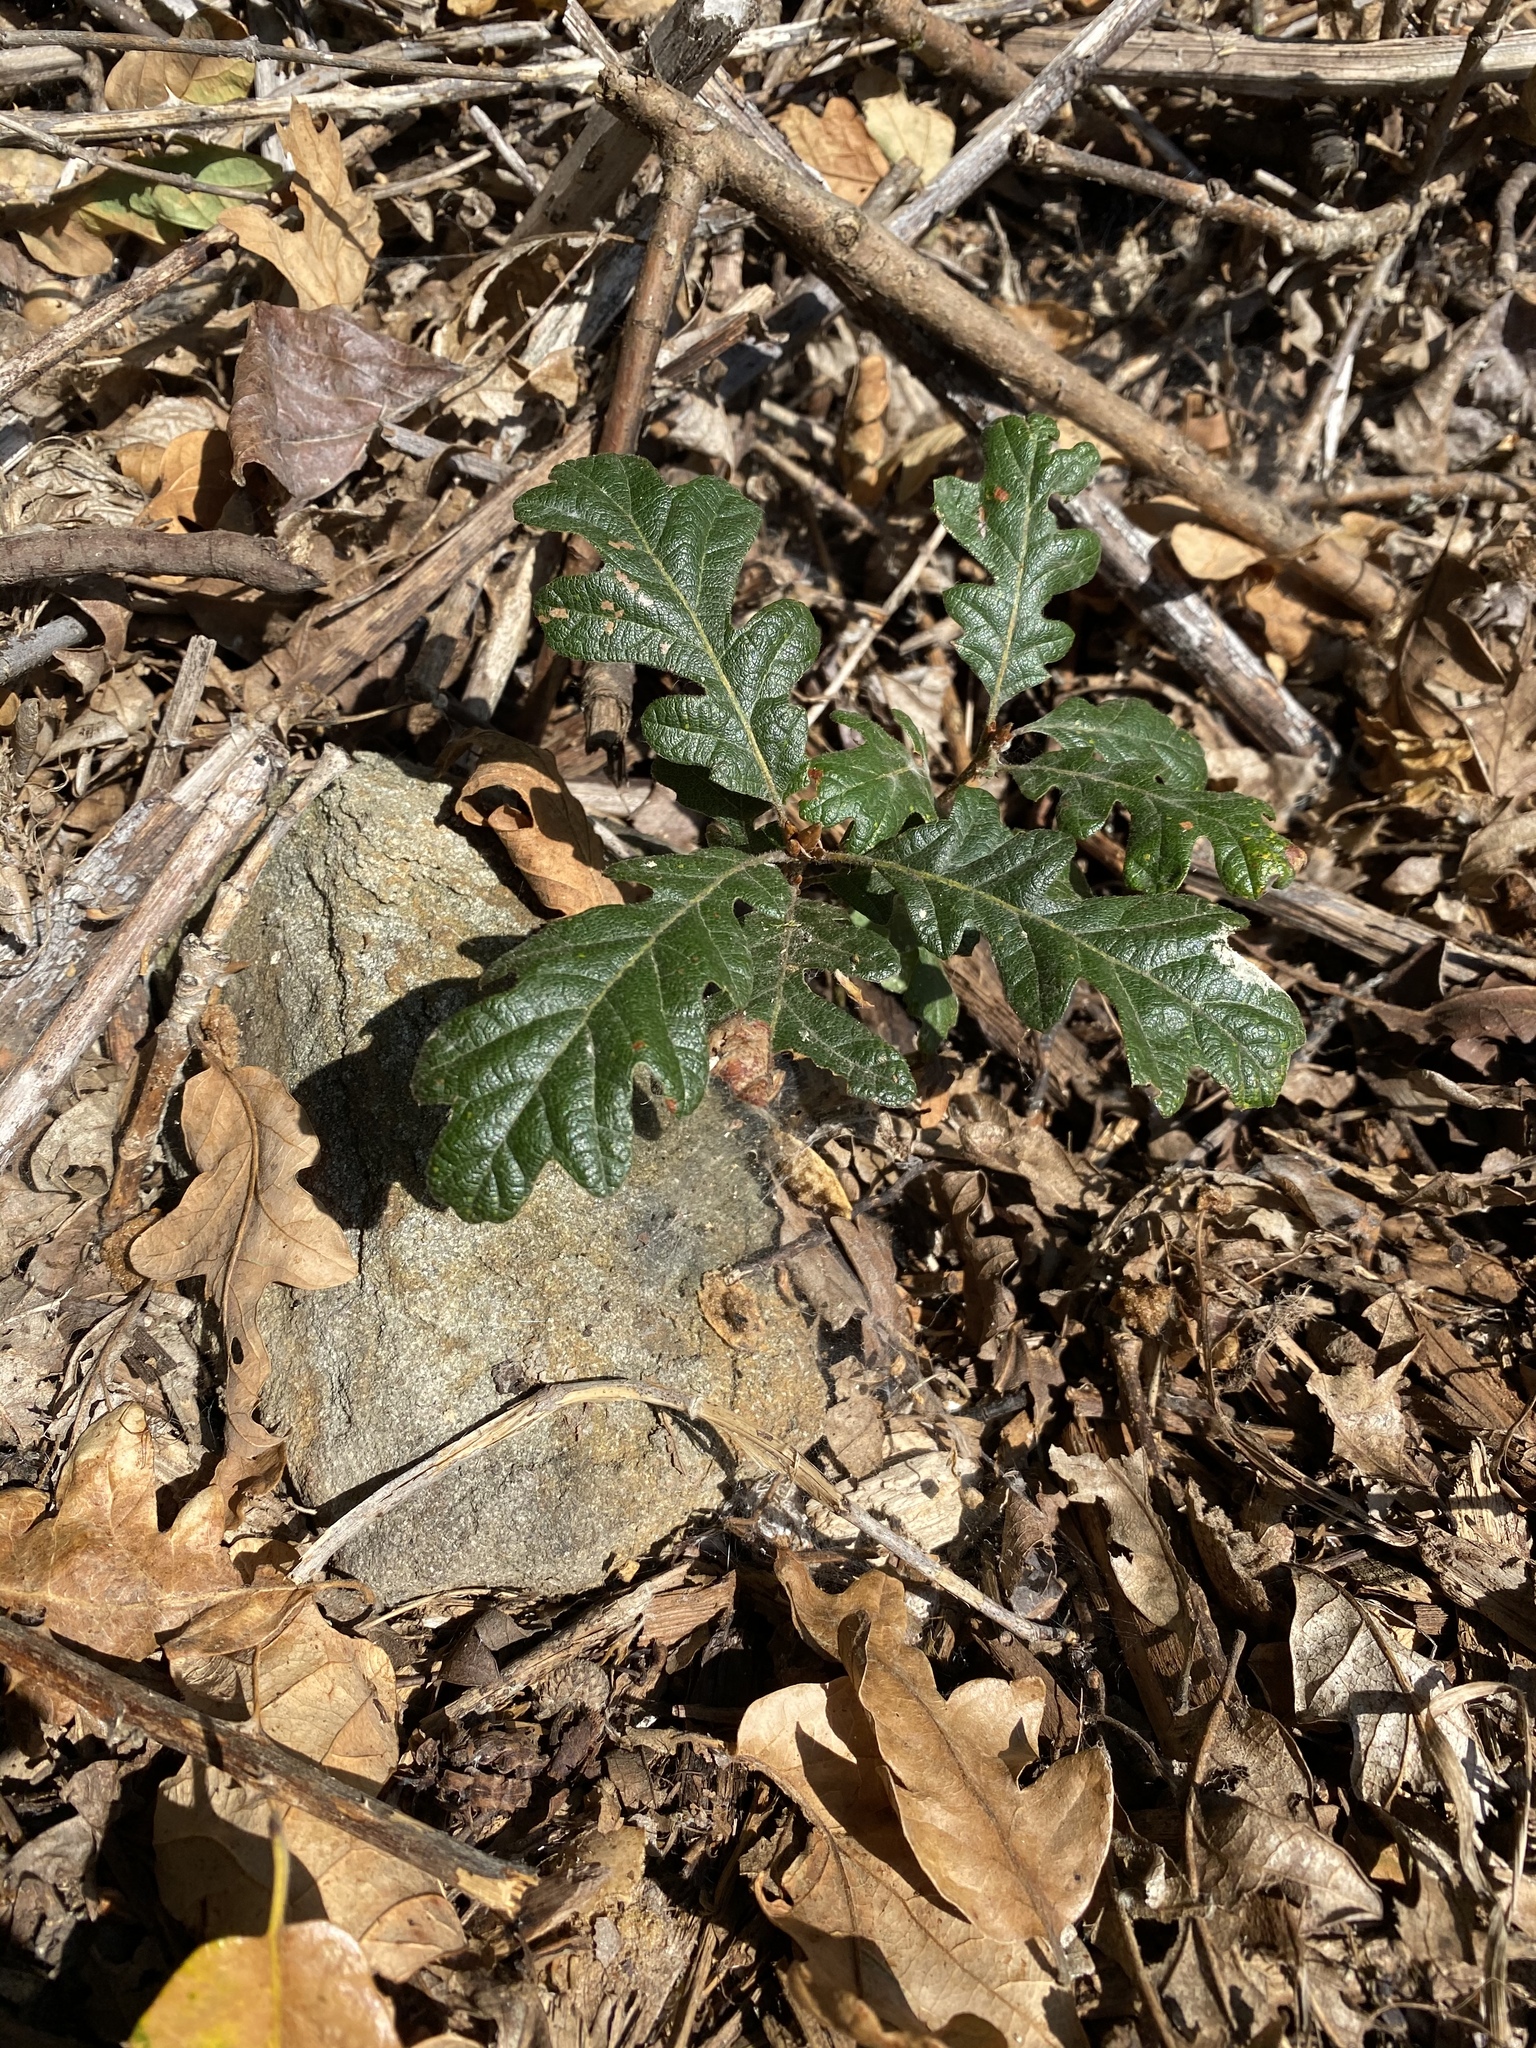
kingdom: Plantae
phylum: Tracheophyta
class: Magnoliopsida
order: Fagales
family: Fagaceae
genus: Quercus
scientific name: Quercus garryana
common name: Garry oak
